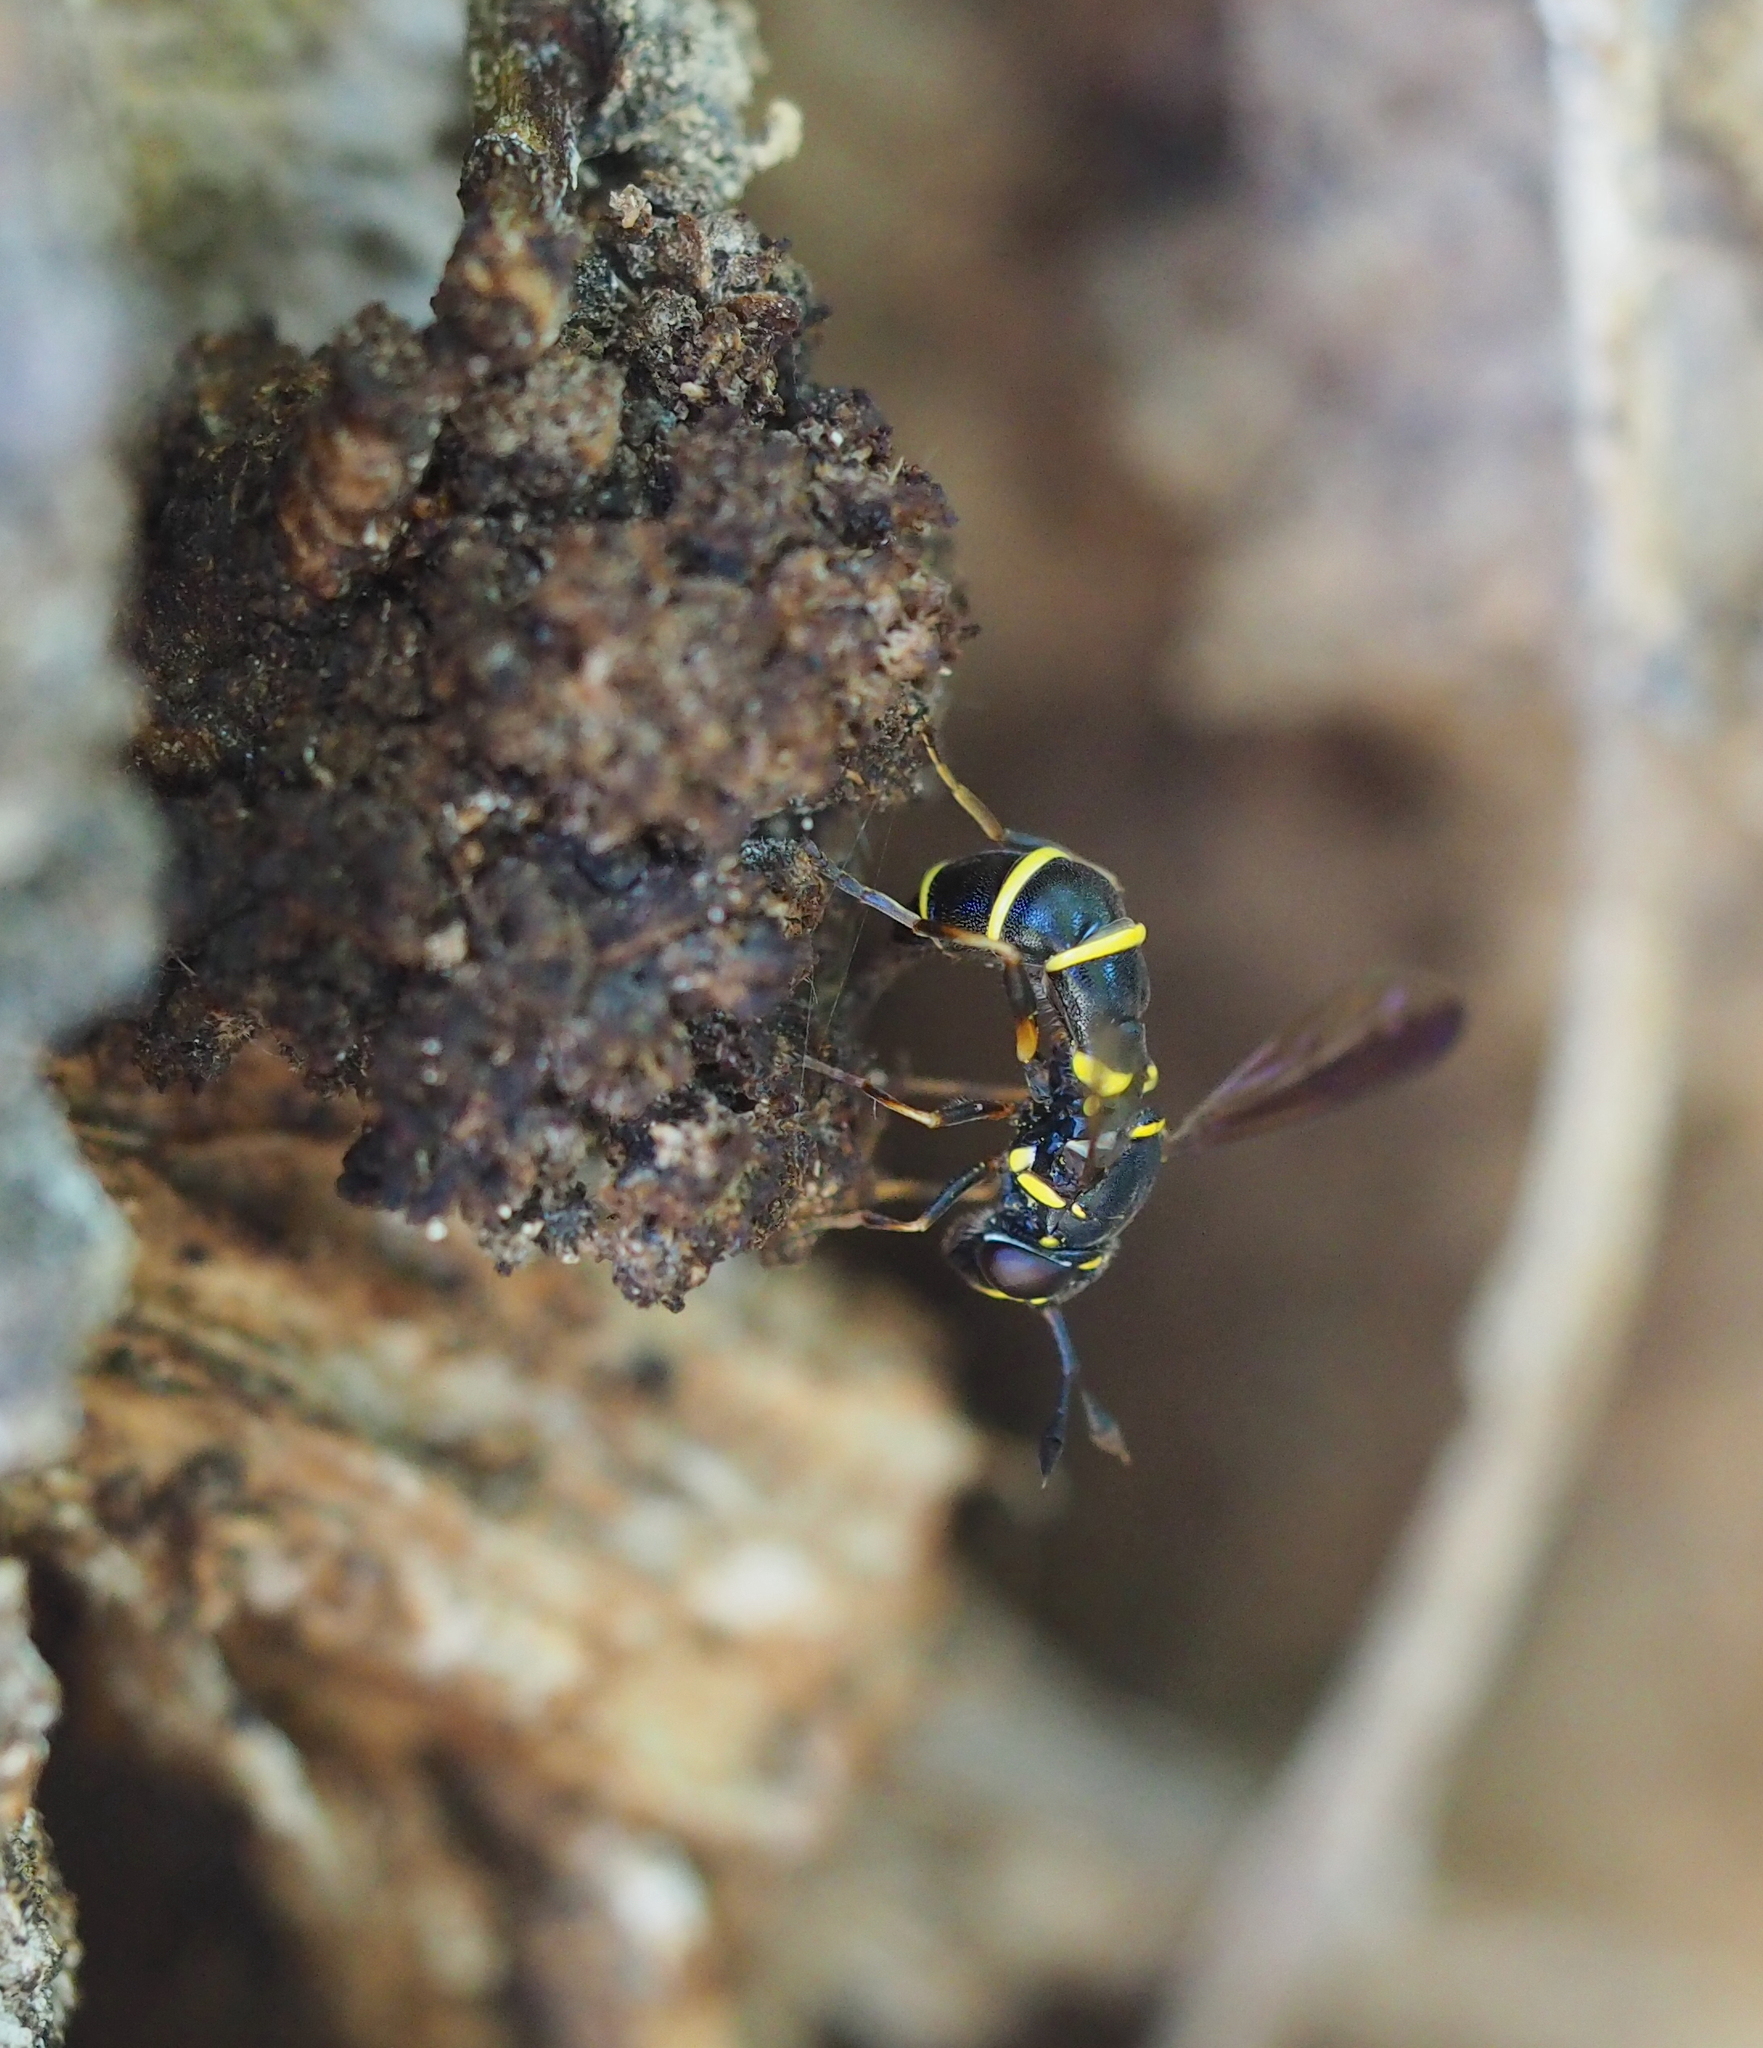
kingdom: Animalia
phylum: Arthropoda
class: Insecta
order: Diptera
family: Syrphidae
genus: Ceriana
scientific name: Ceriana conopsoides
